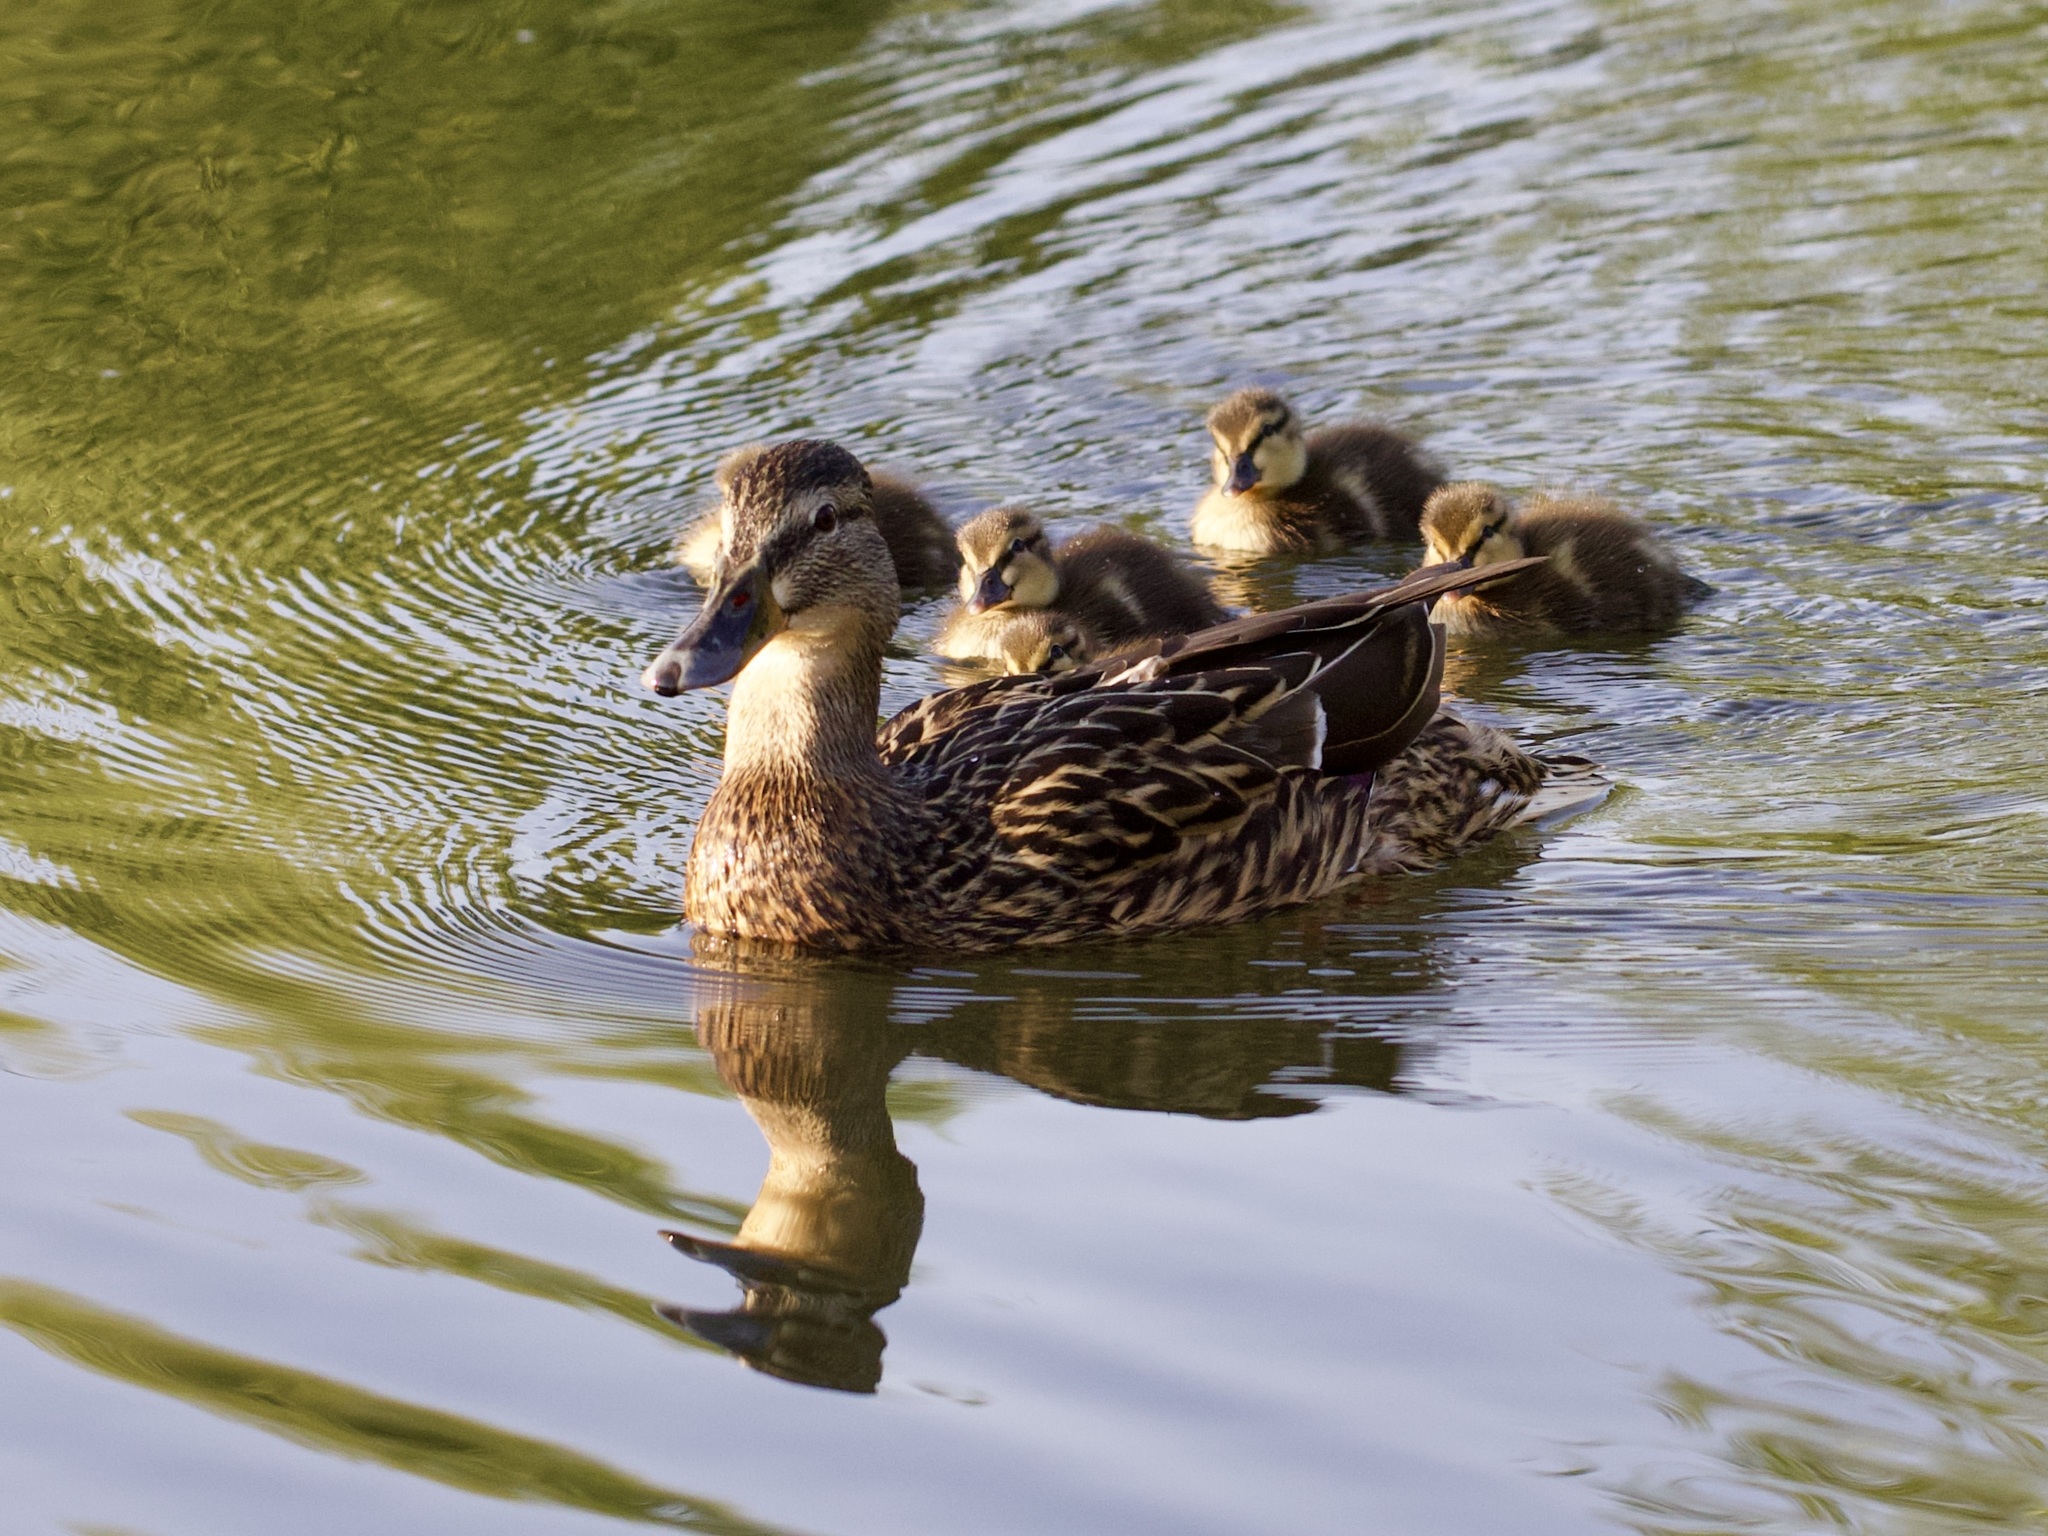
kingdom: Animalia
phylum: Chordata
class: Aves
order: Anseriformes
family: Anatidae
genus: Anas
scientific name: Anas platyrhynchos
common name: Mallard
